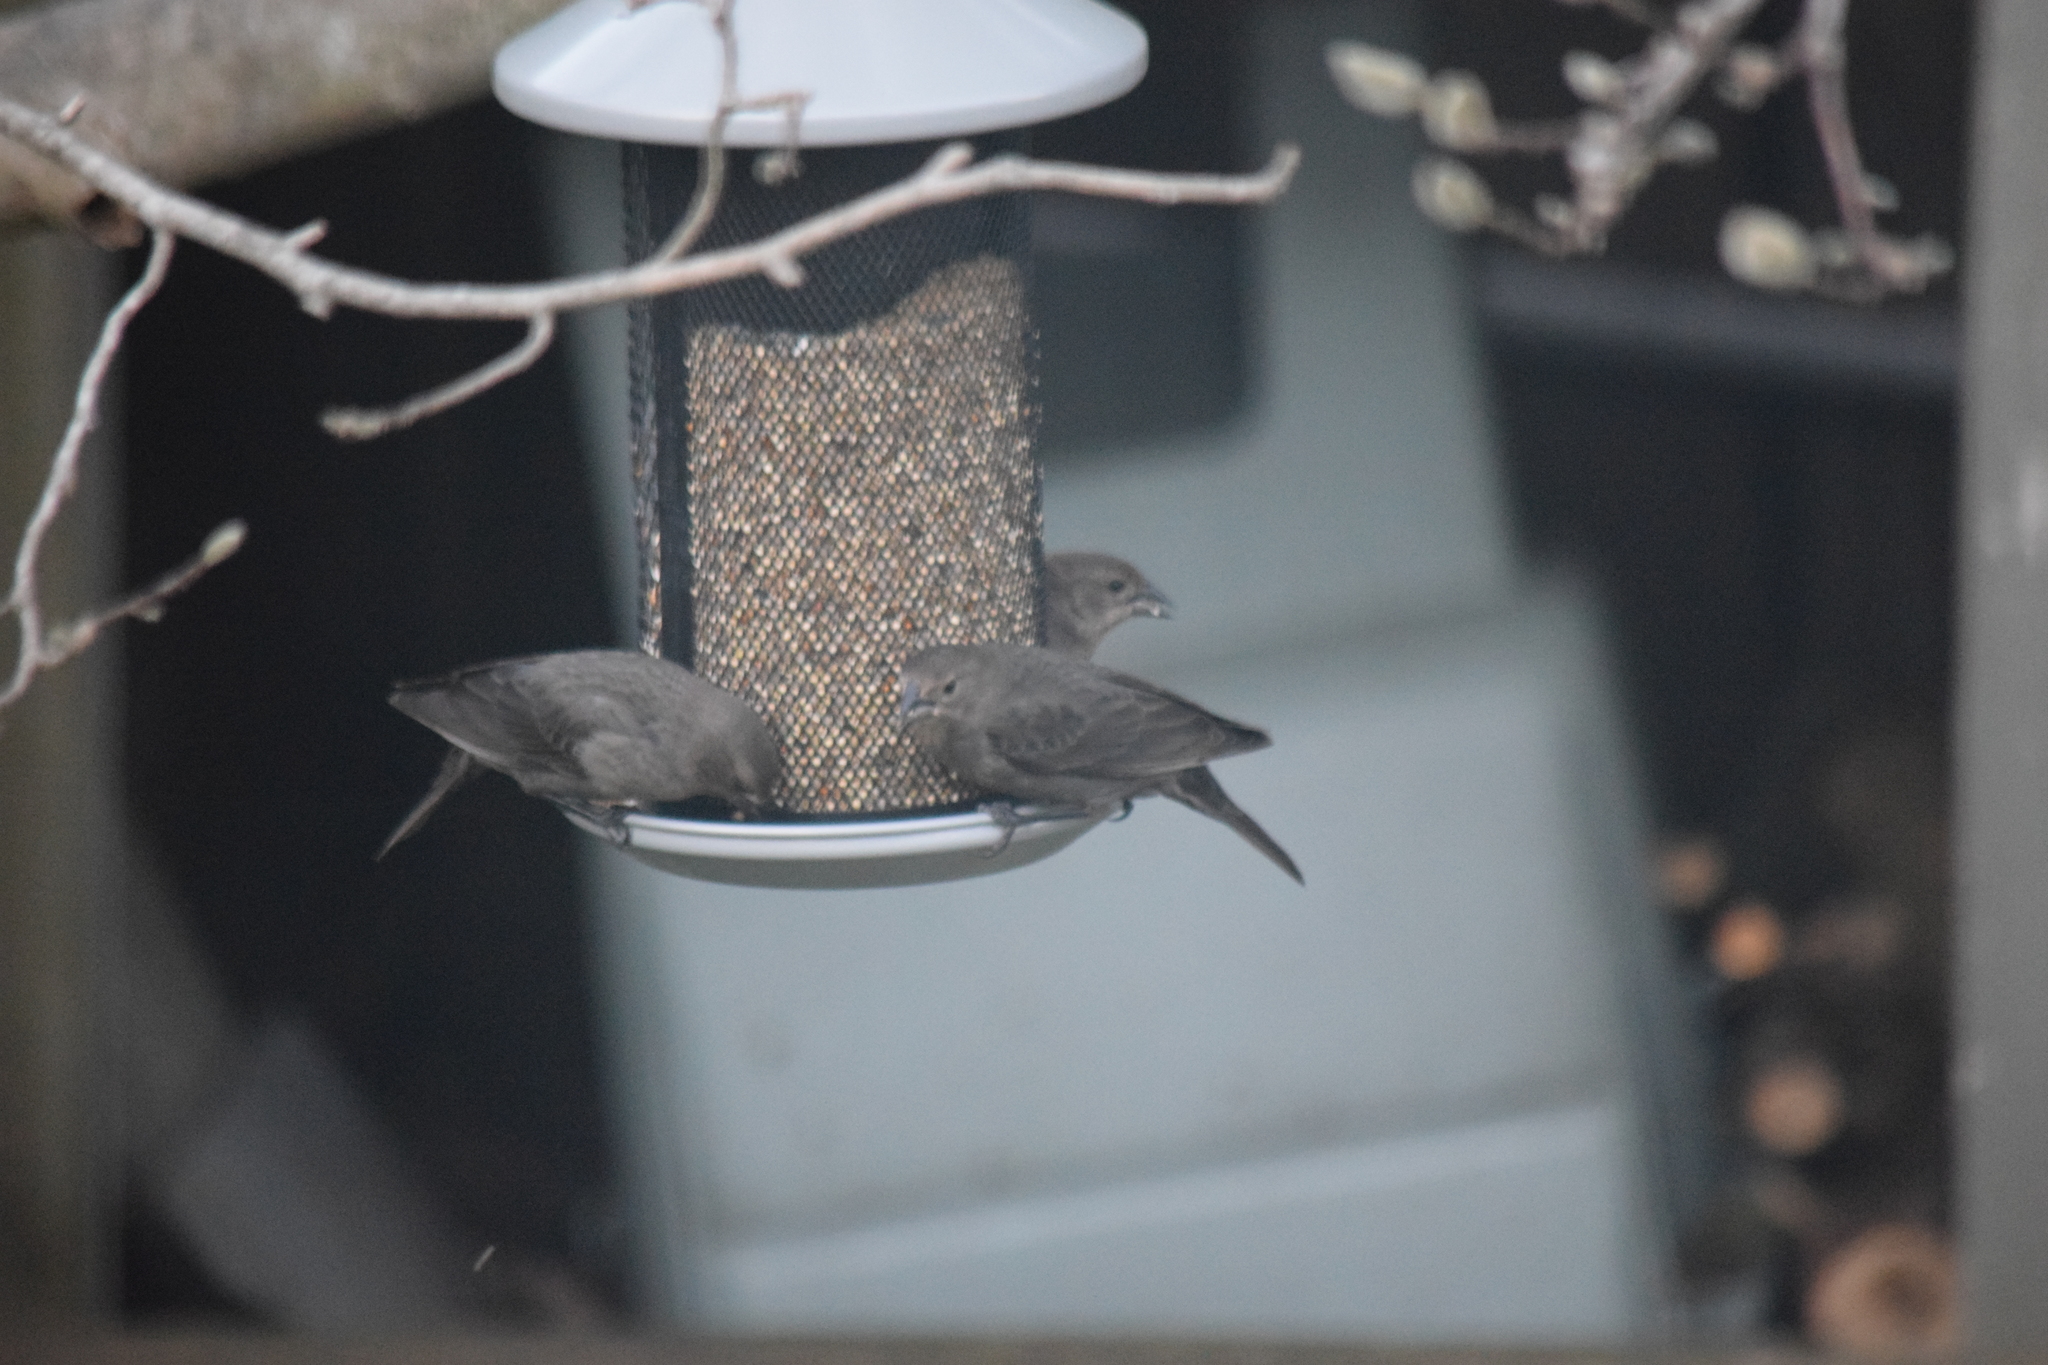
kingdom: Animalia
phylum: Chordata
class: Aves
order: Passeriformes
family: Icteridae
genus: Molothrus
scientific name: Molothrus ater
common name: Brown-headed cowbird
